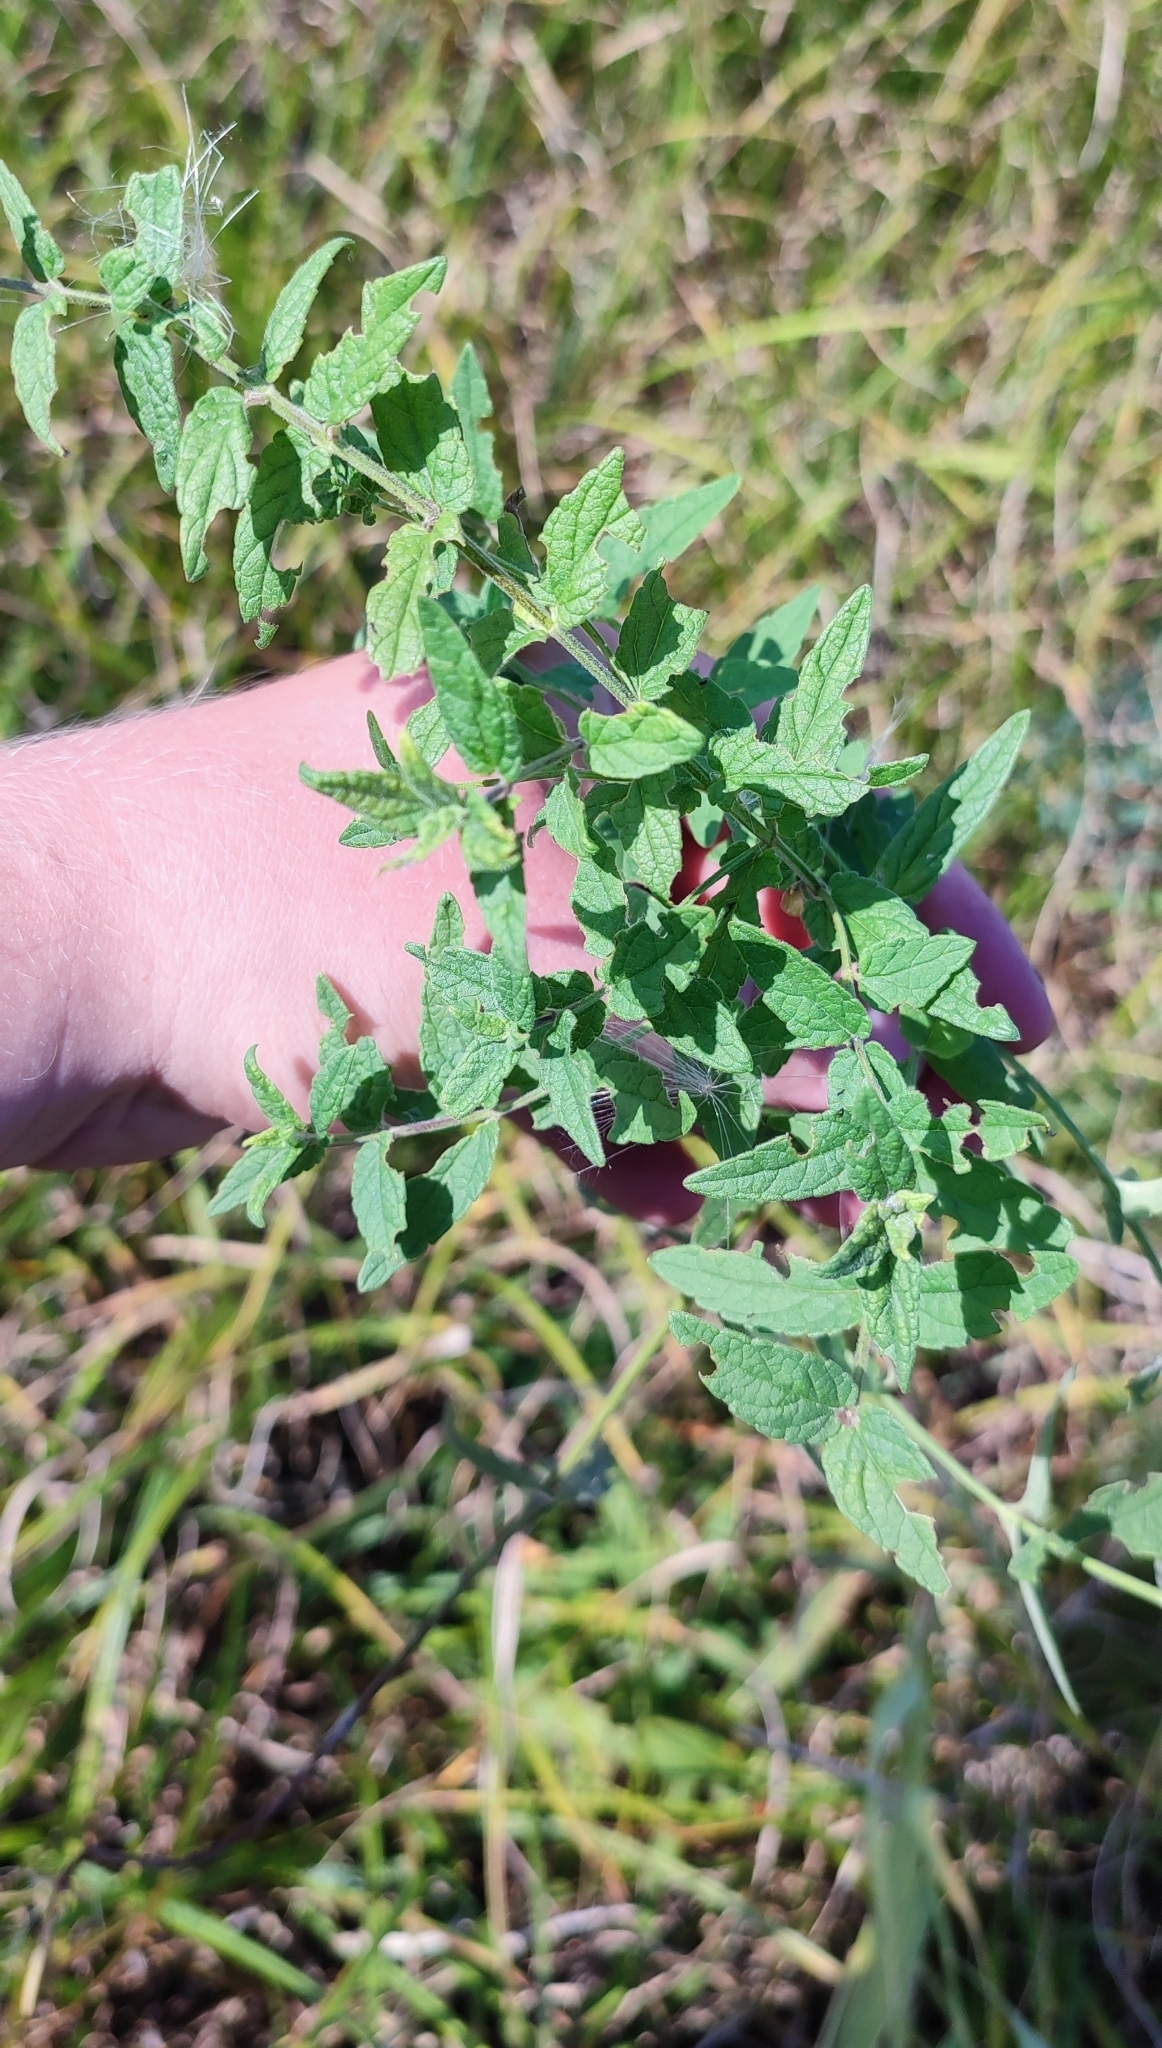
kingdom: Plantae
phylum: Tracheophyta
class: Magnoliopsida
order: Lamiales
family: Lamiaceae
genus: Scutellaria
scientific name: Scutellaria galericulata
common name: Skullcap
